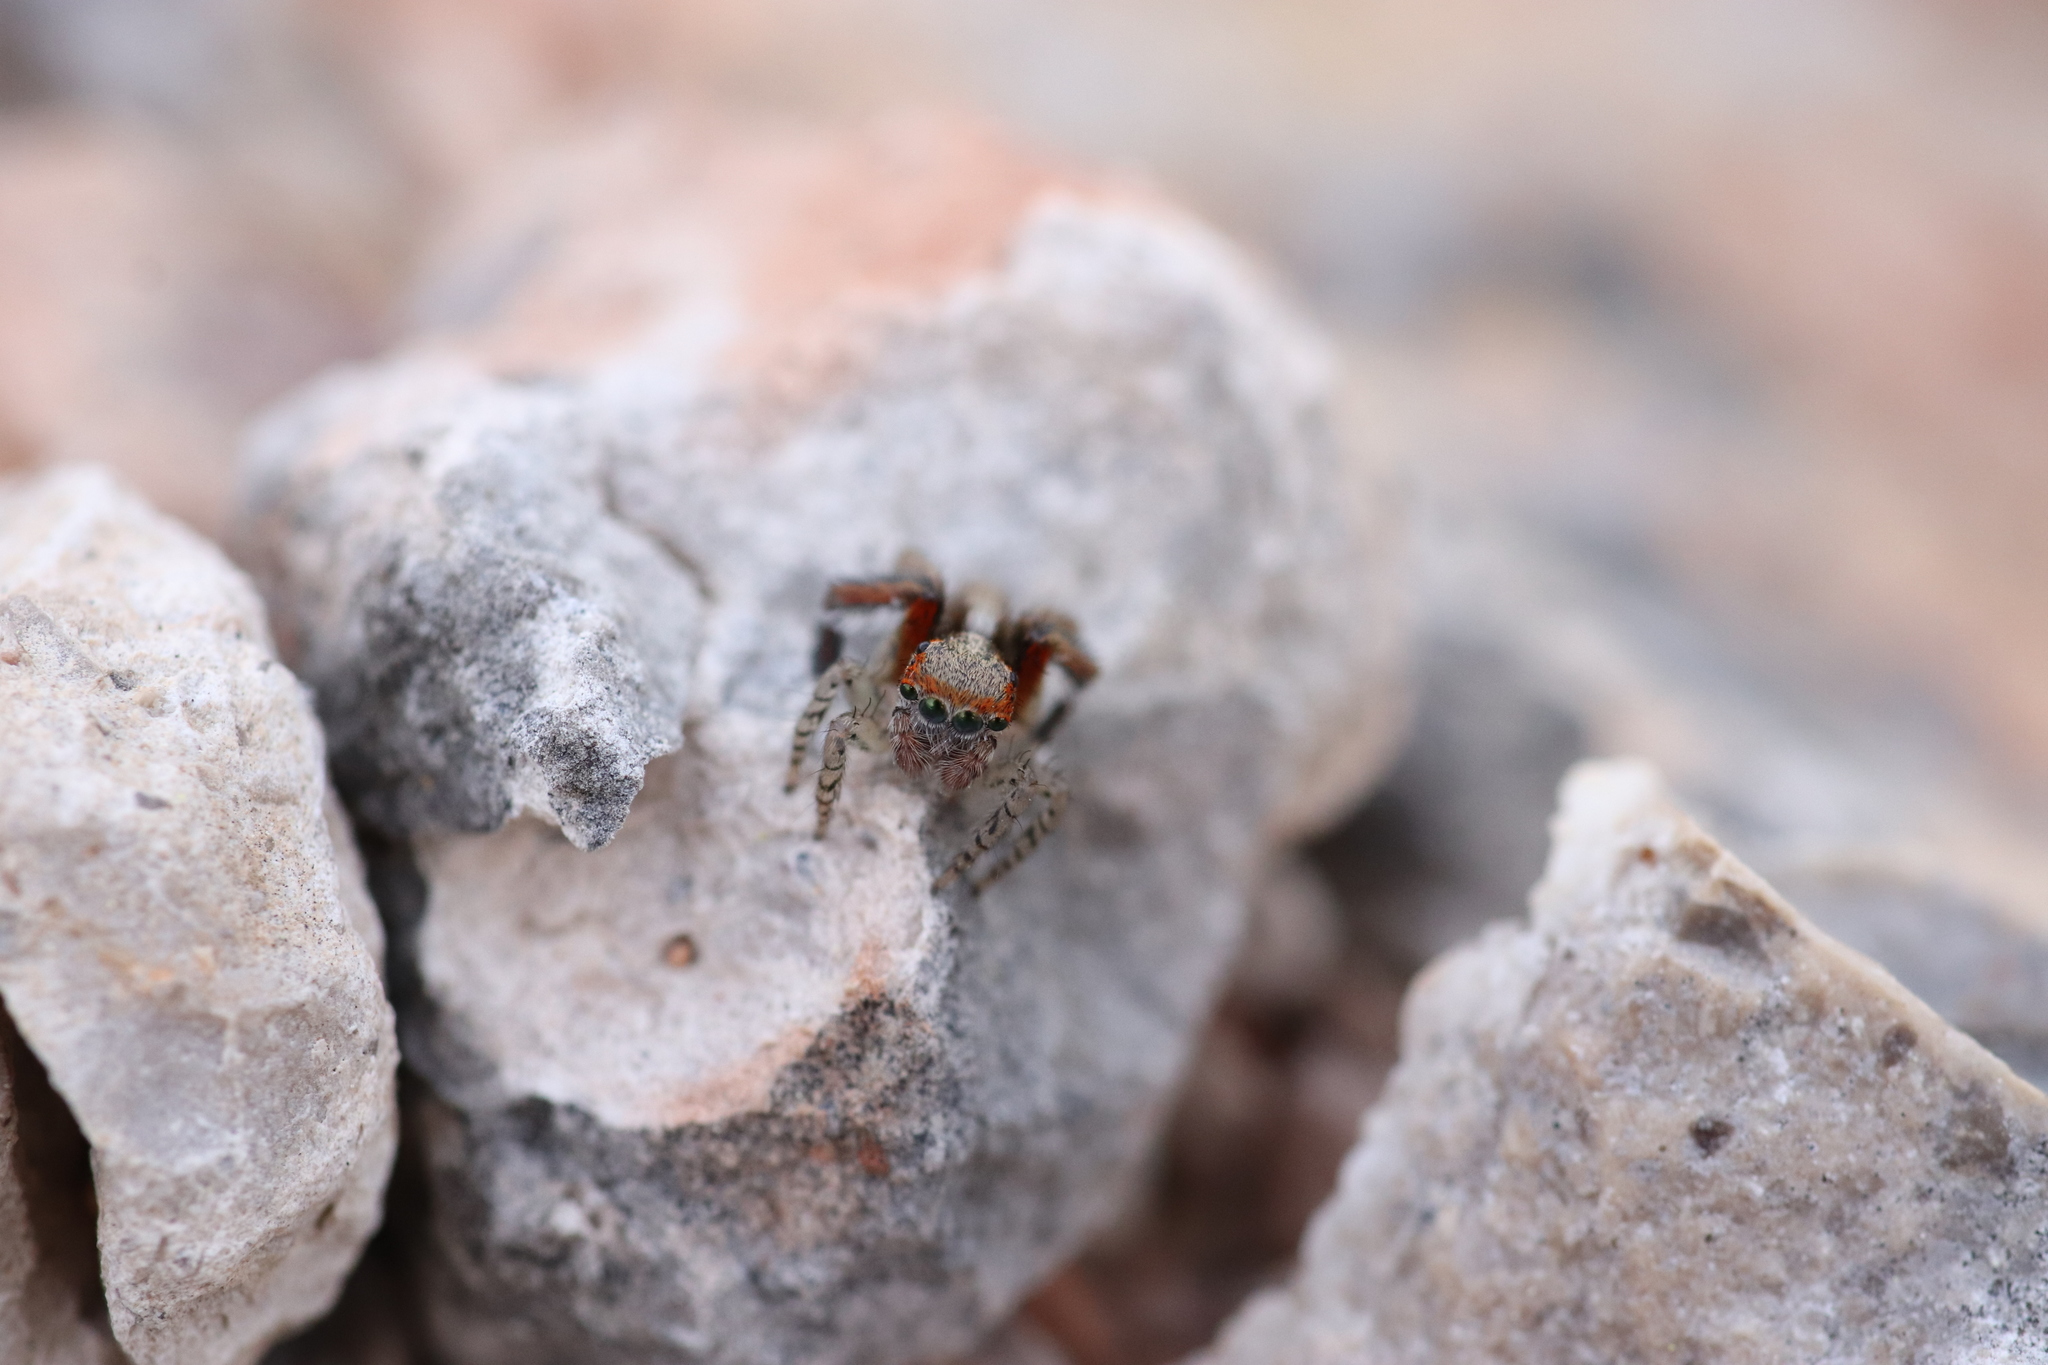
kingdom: Animalia
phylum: Arthropoda
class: Arachnida
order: Araneae
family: Salticidae
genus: Saitis
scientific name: Saitis barbipes
